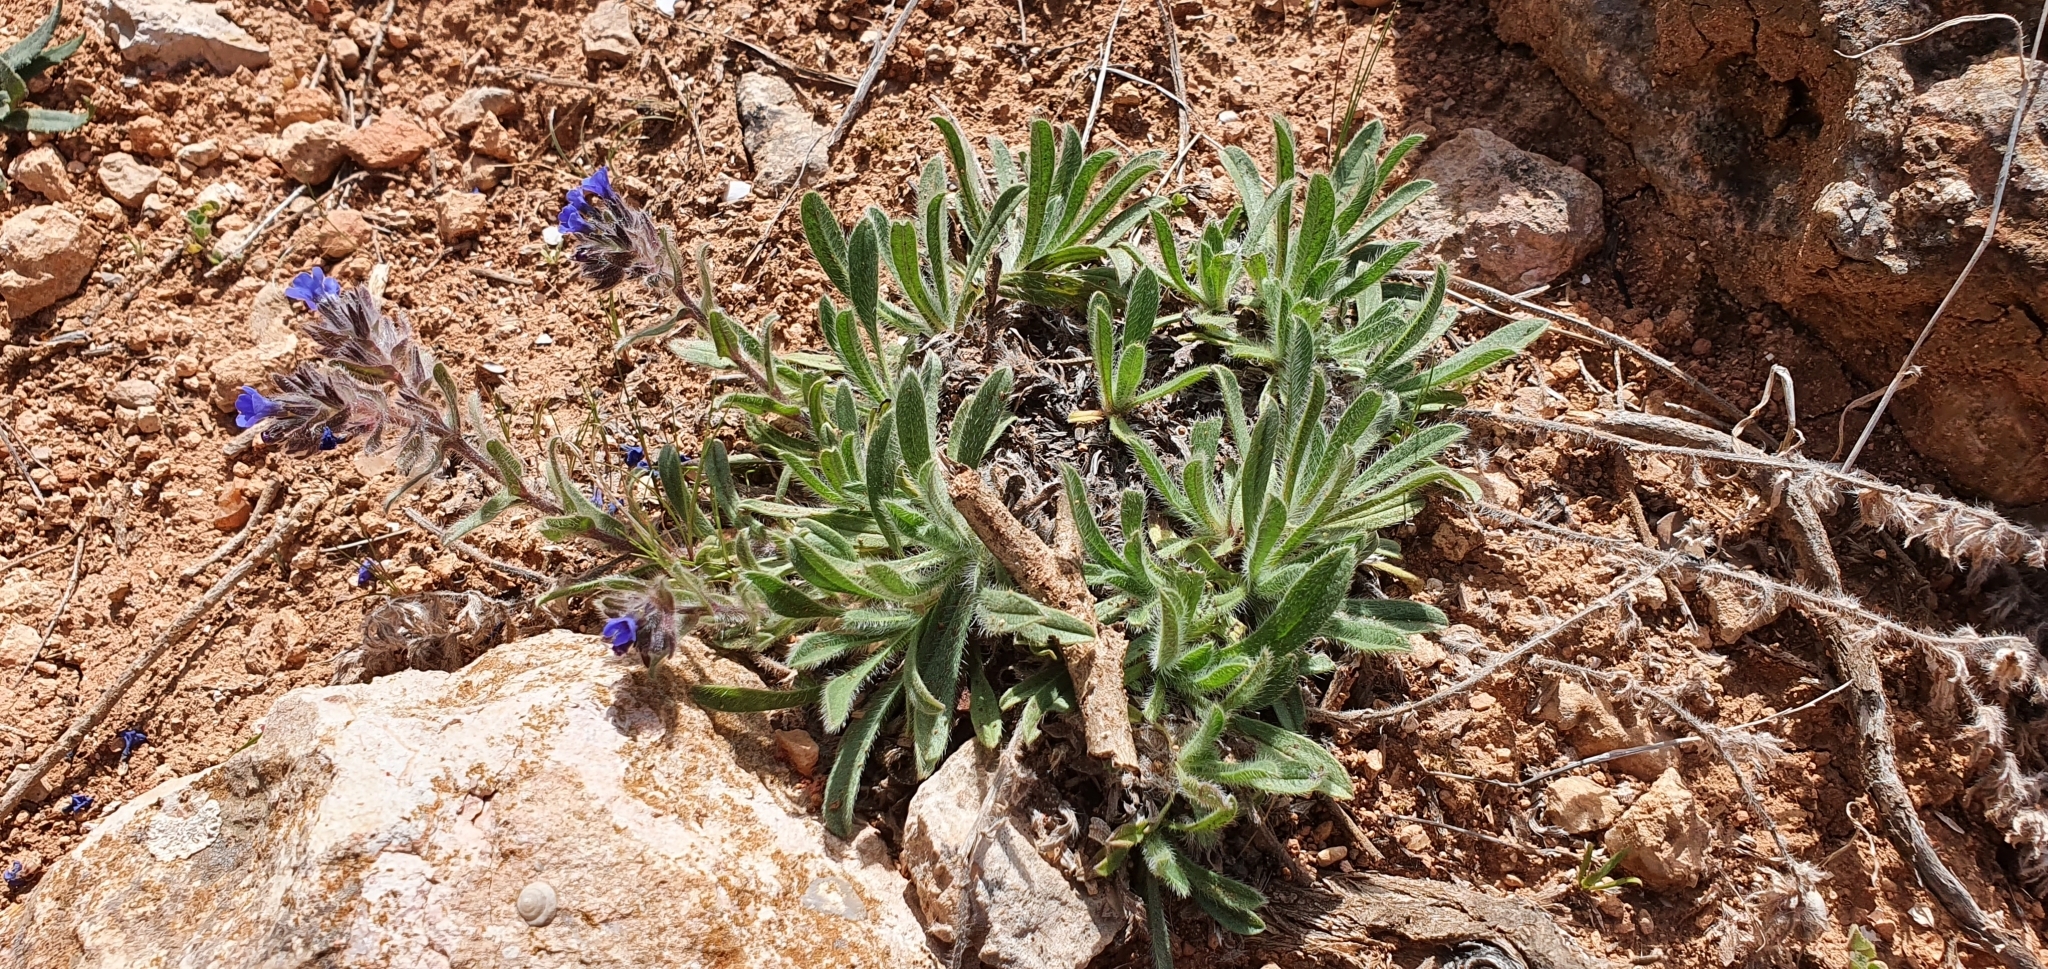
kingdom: Plantae
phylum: Tracheophyta
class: Magnoliopsida
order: Boraginales
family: Boraginaceae
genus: Alkanna
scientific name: Alkanna tinctoria
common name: Dyer's-alkanet
